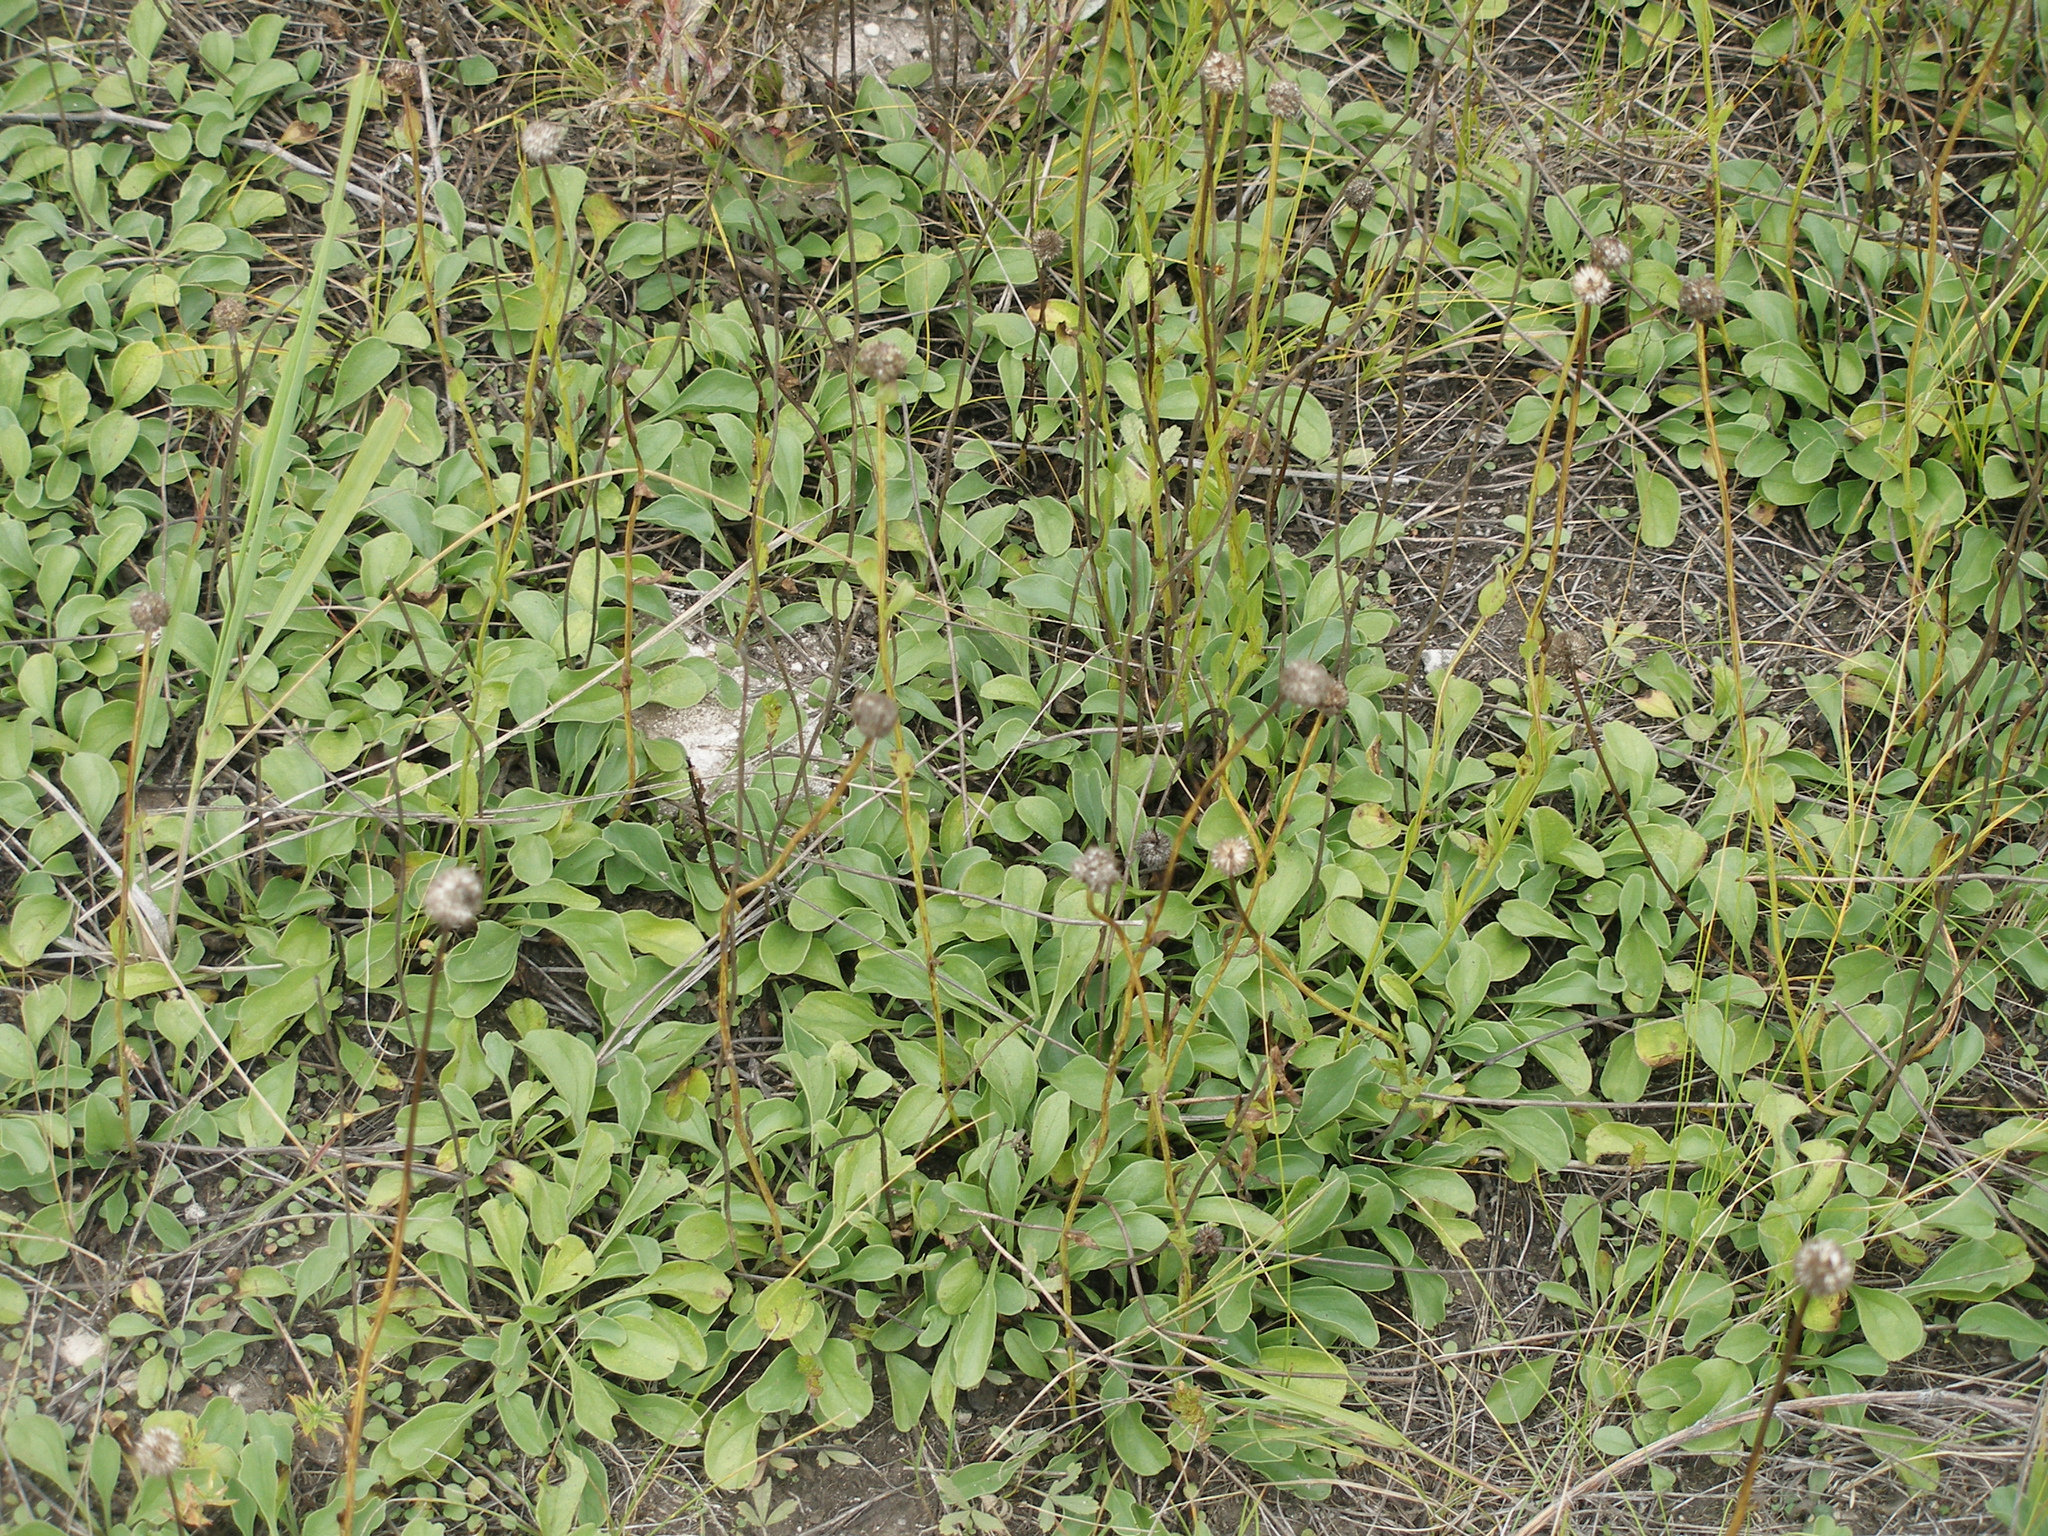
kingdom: Plantae
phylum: Tracheophyta
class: Magnoliopsida
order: Lamiales
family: Plantaginaceae
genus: Globularia
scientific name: Globularia bisnagarica
